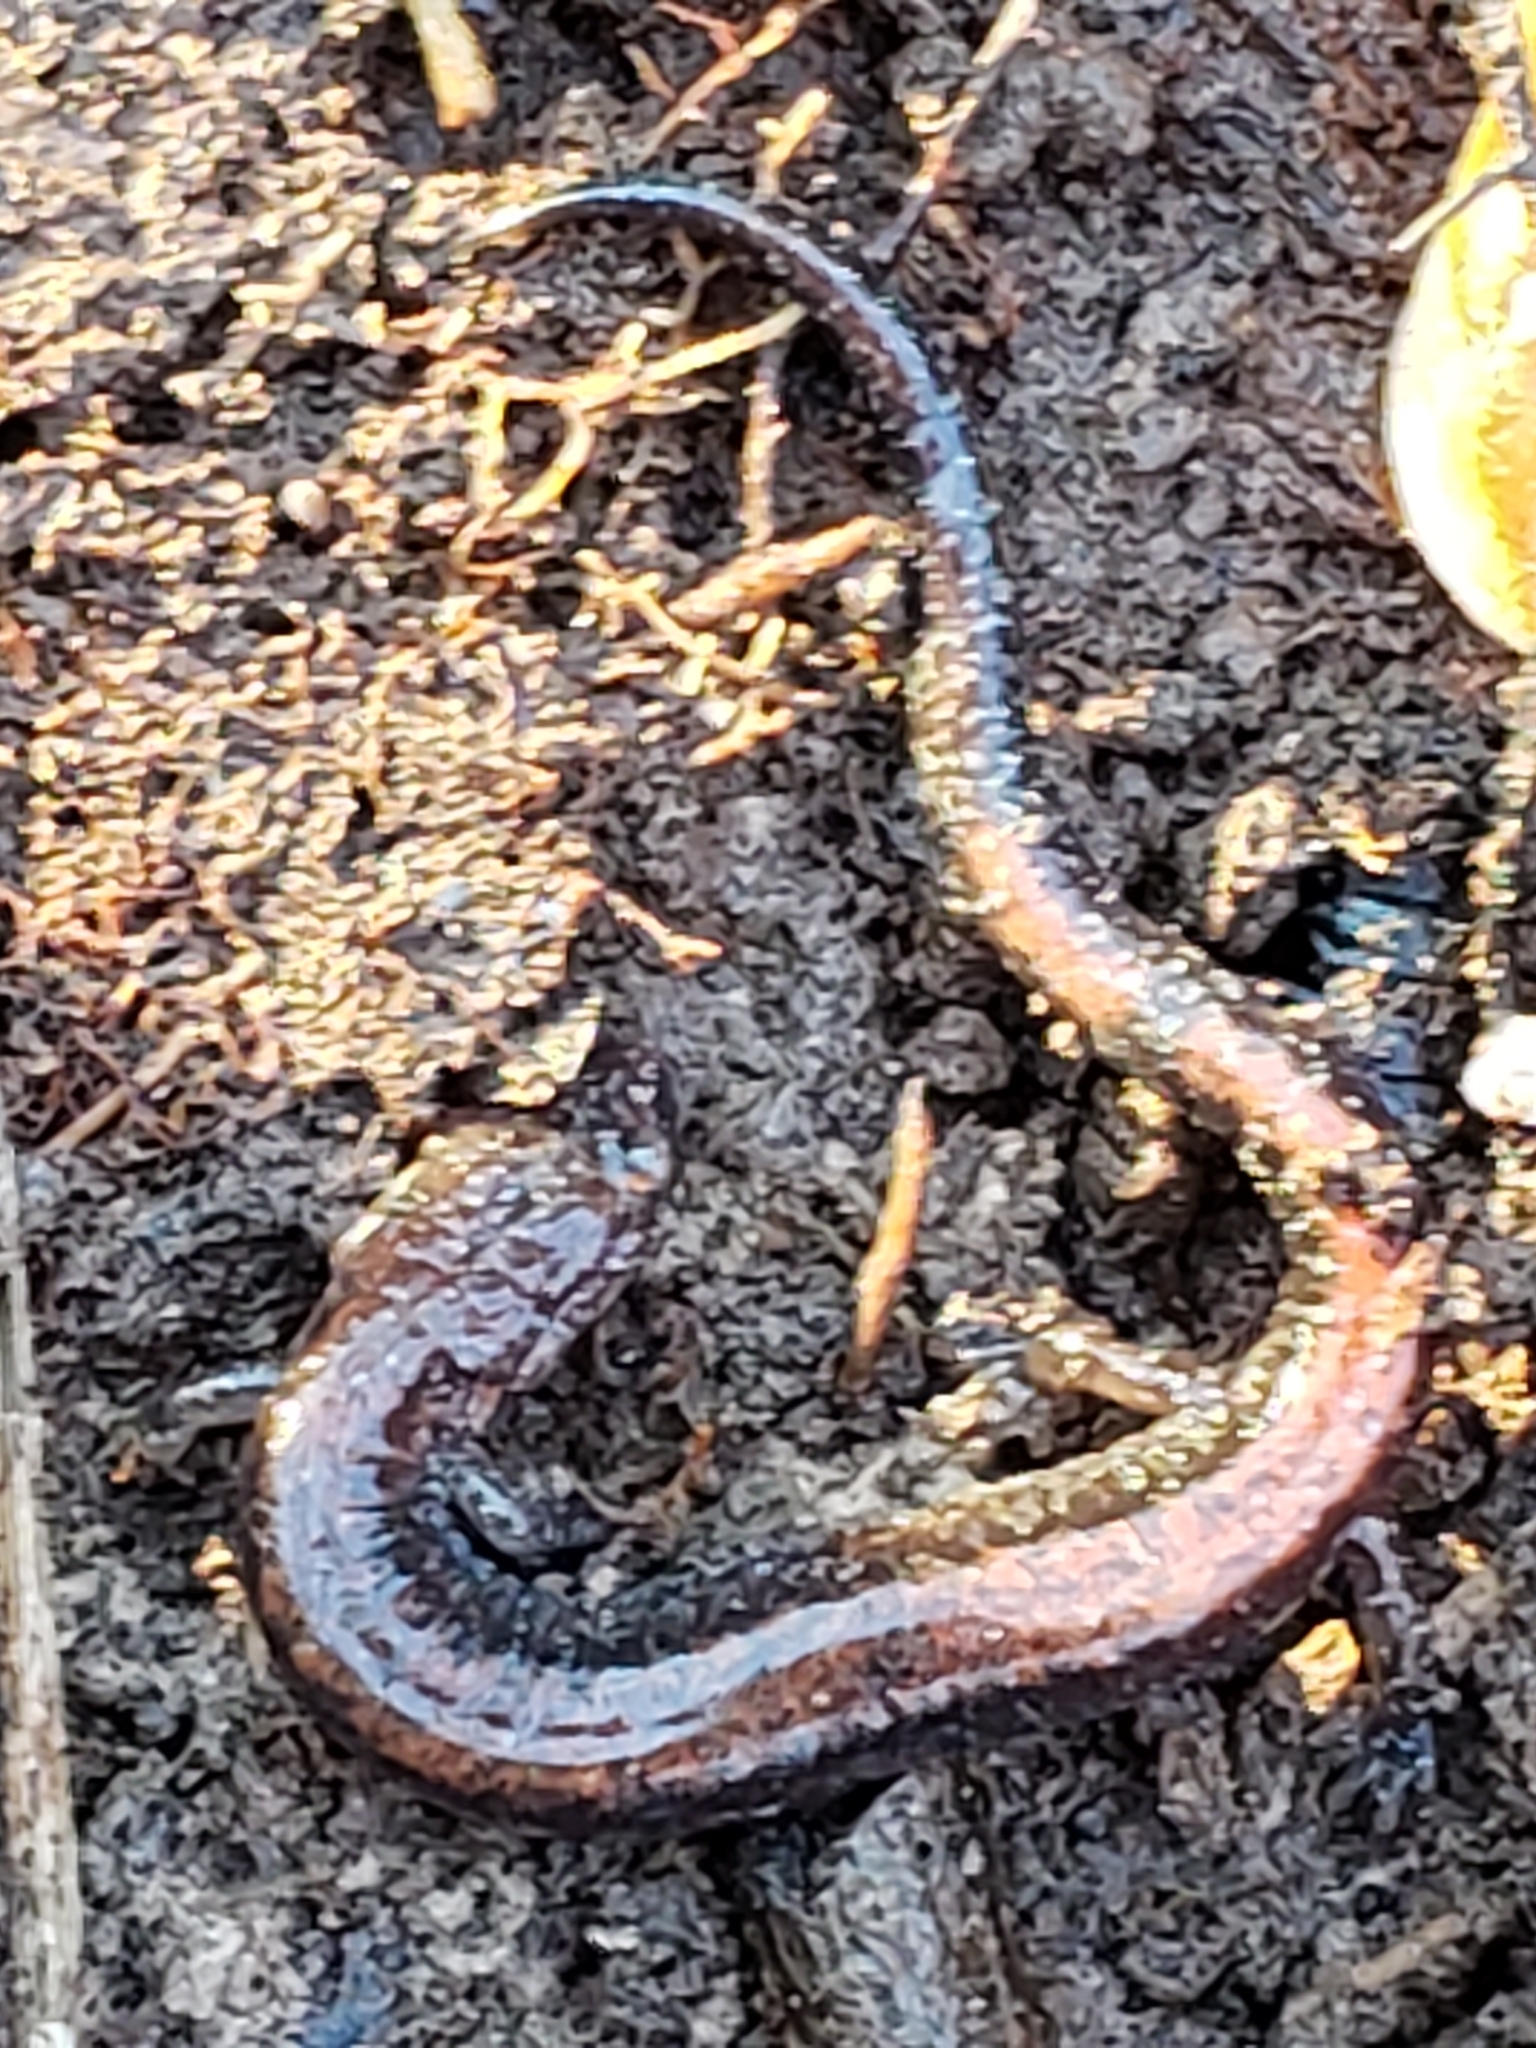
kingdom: Animalia
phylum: Chordata
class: Amphibia
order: Caudata
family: Plethodontidae
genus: Plethodon
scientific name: Plethodon cinereus
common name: Redback salamander
